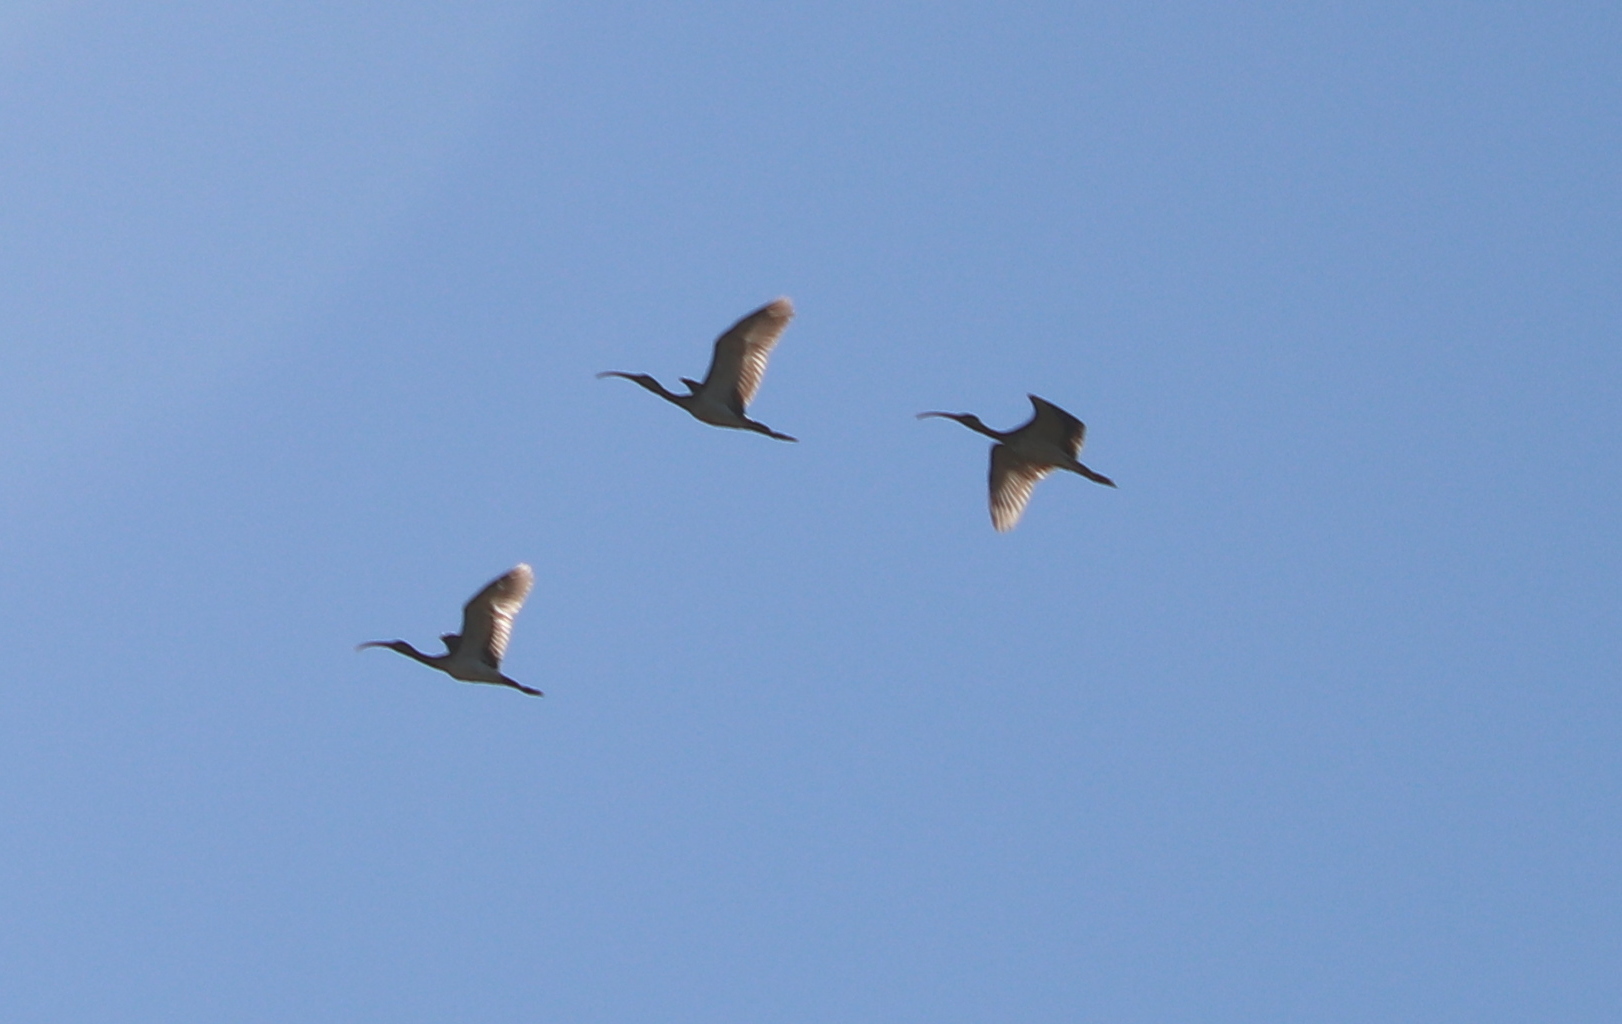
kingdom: Animalia
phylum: Chordata
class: Aves
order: Pelecaniformes
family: Threskiornithidae
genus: Eudocimus
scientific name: Eudocimus albus
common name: White ibis
